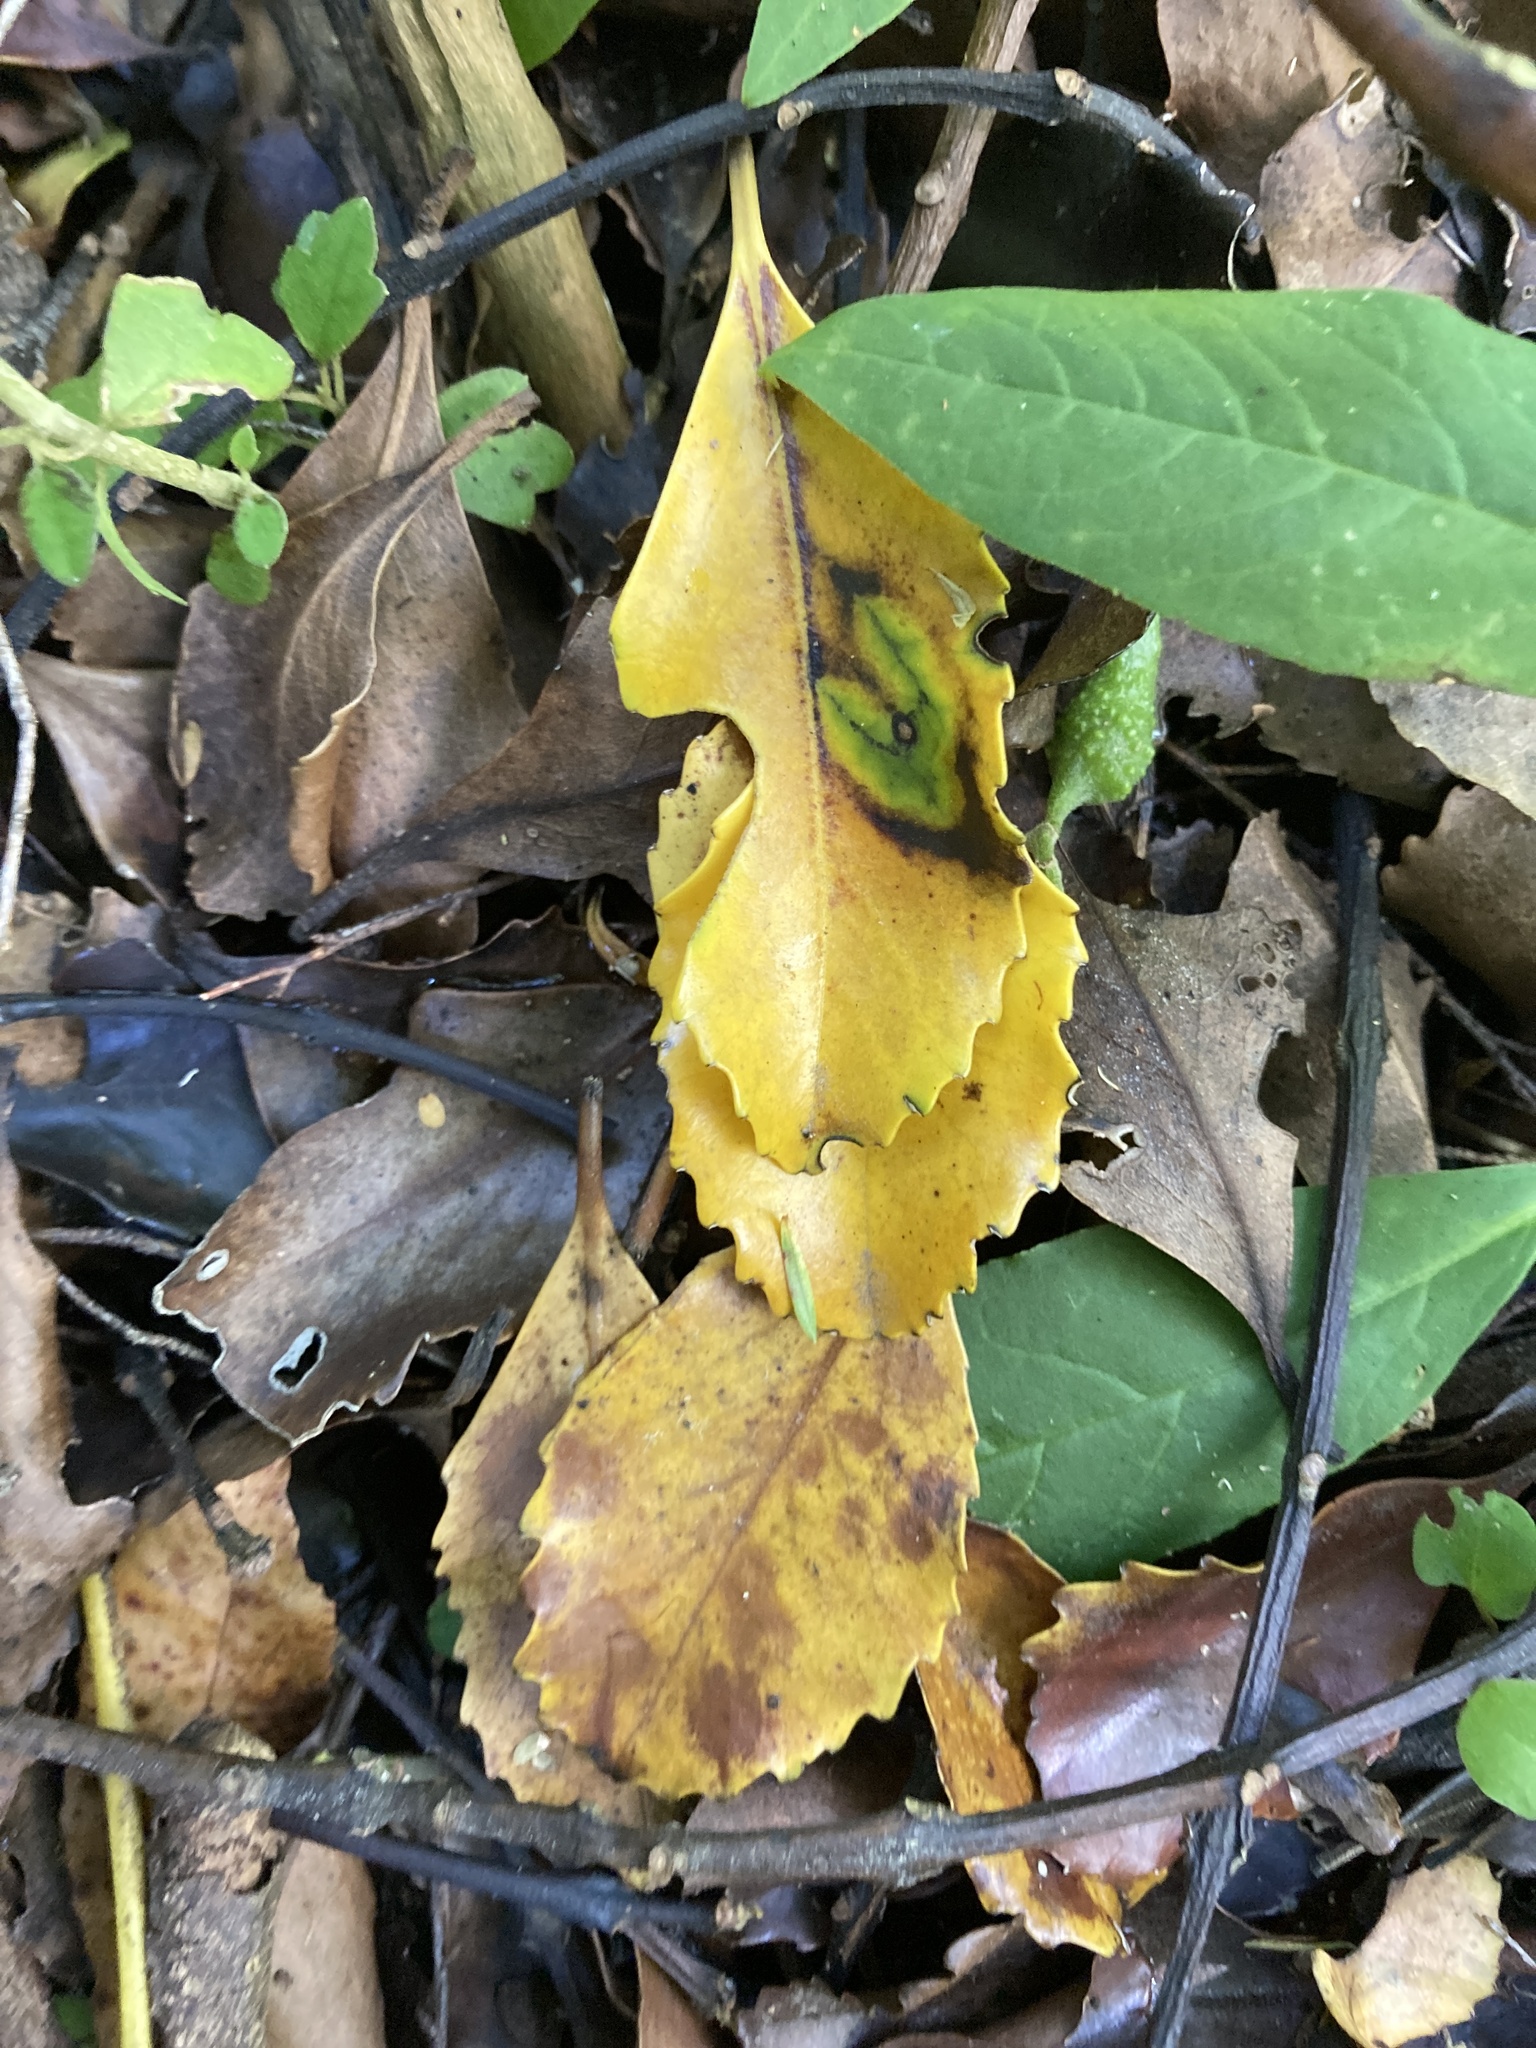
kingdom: Plantae
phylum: Tracheophyta
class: Magnoliopsida
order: Laurales
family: Atherospermataceae
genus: Laurelia
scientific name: Laurelia novae-zelandiae
